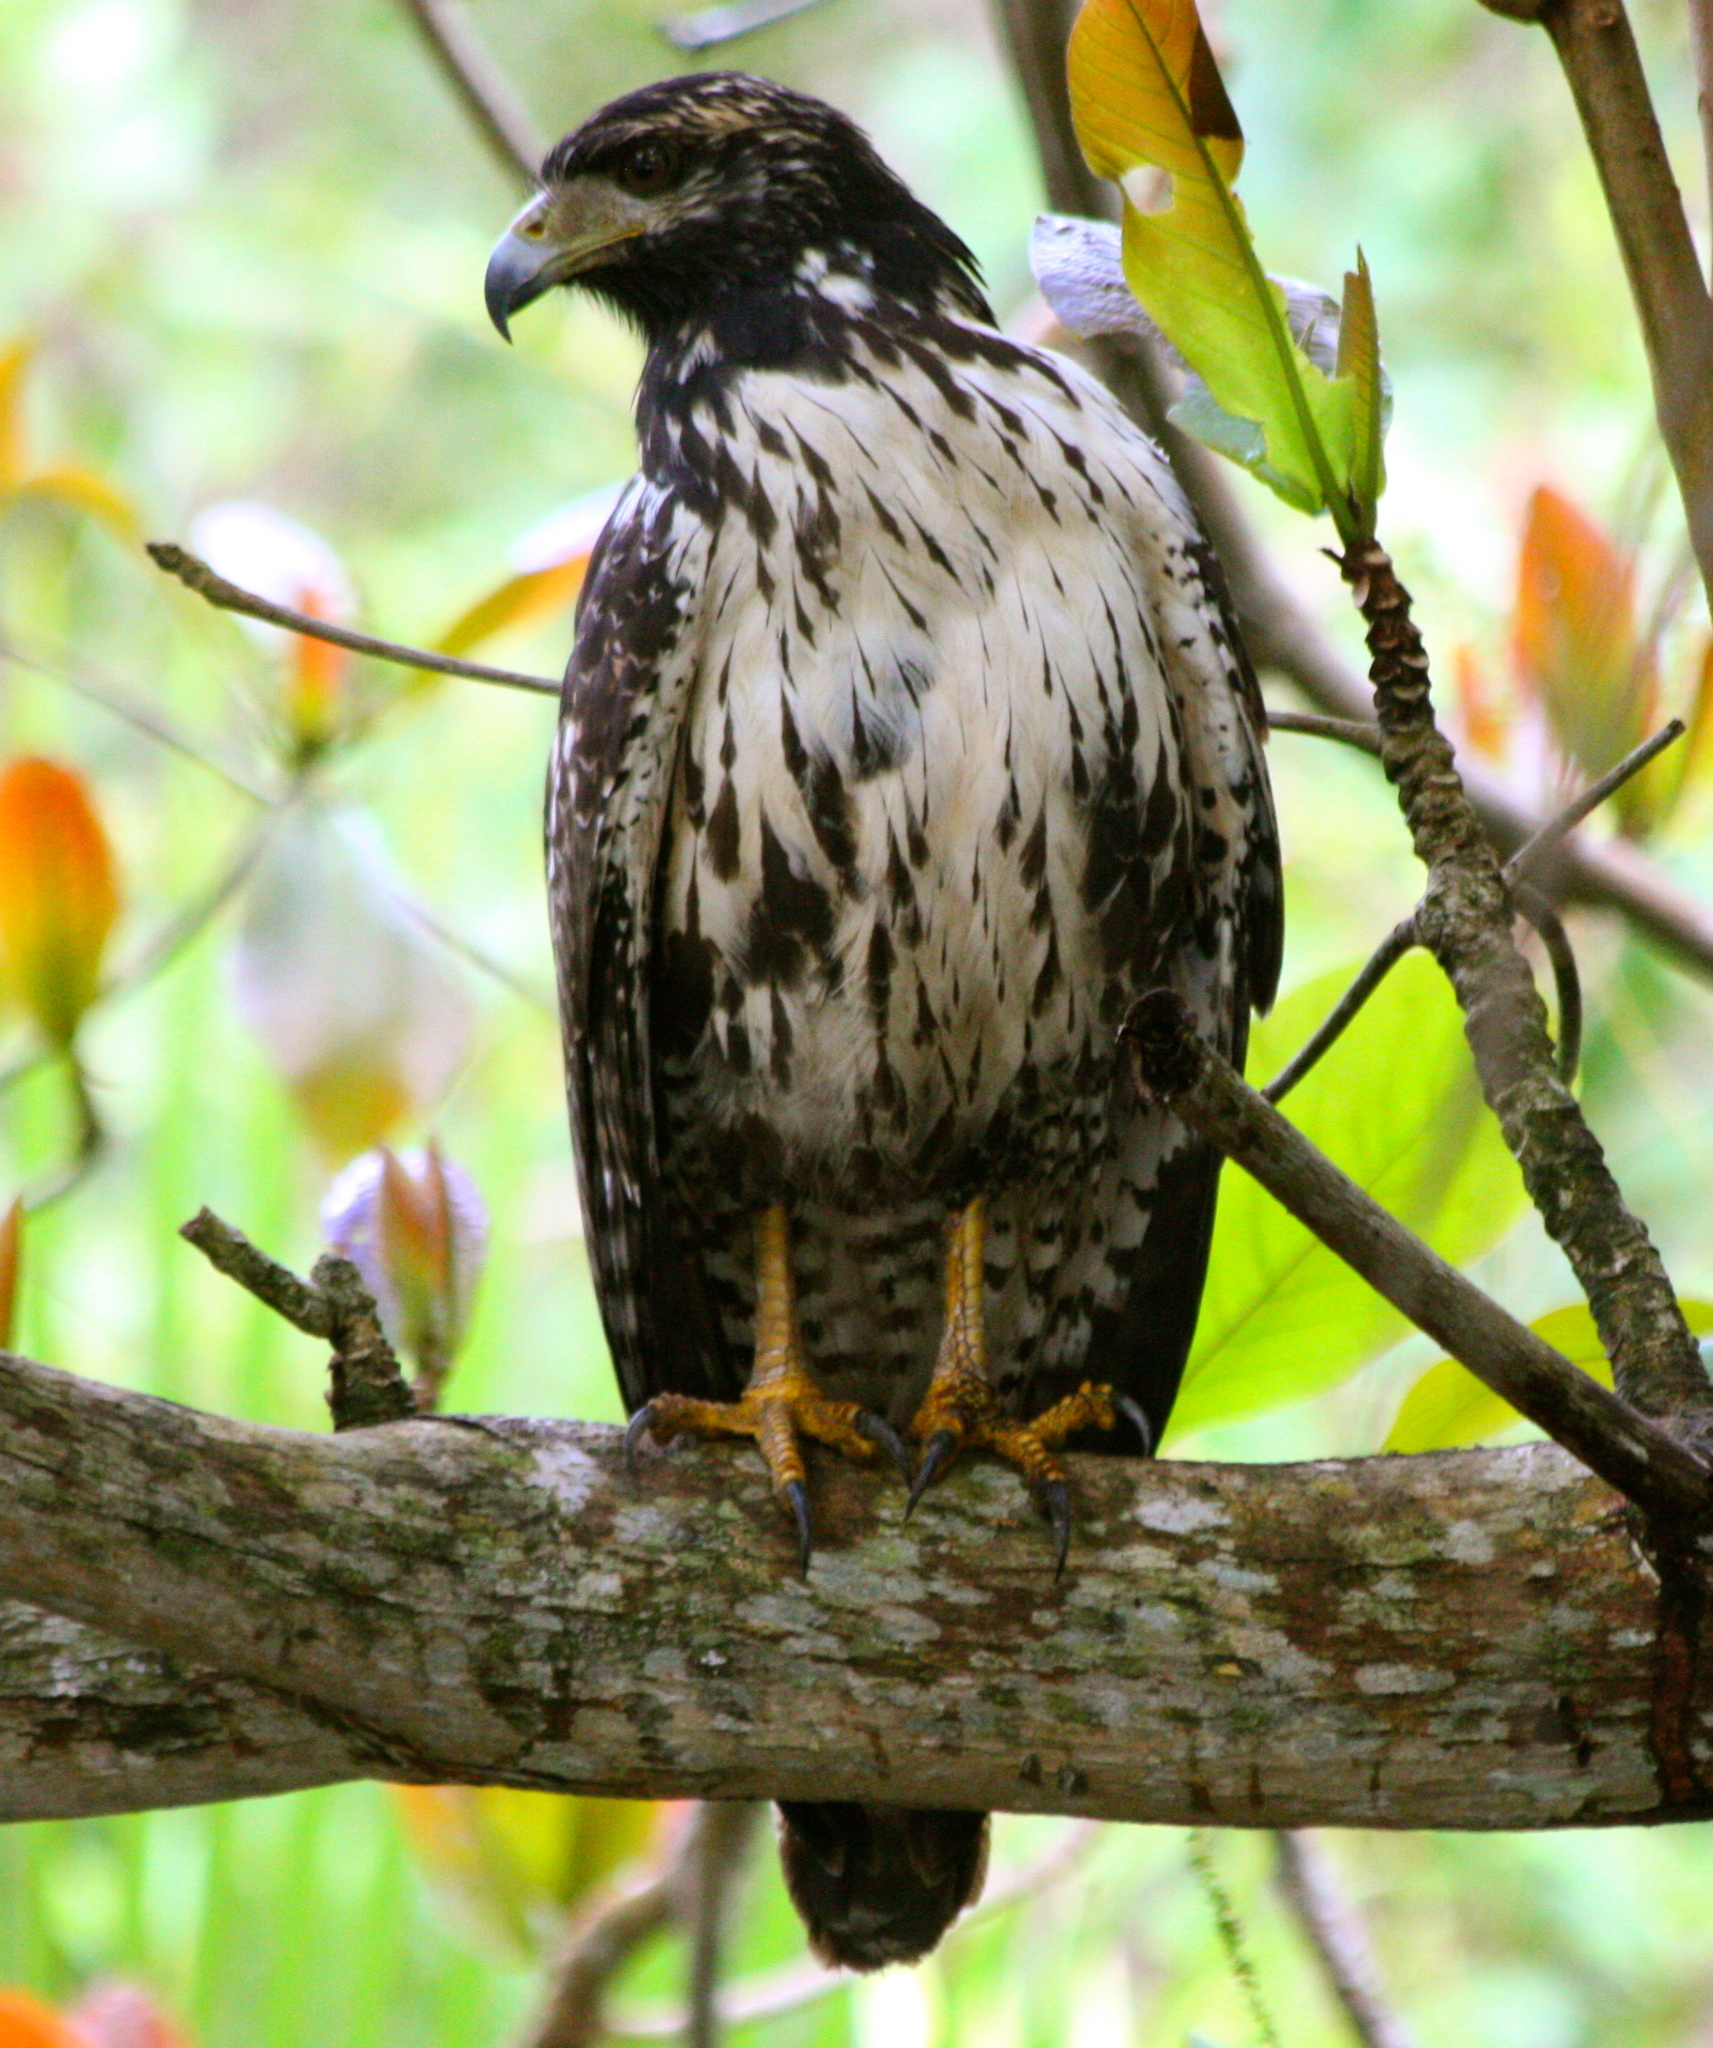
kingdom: Animalia
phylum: Chordata
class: Aves
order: Accipitriformes
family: Accipitridae
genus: Buteogallus
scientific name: Buteogallus anthracinus
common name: Common black hawk
